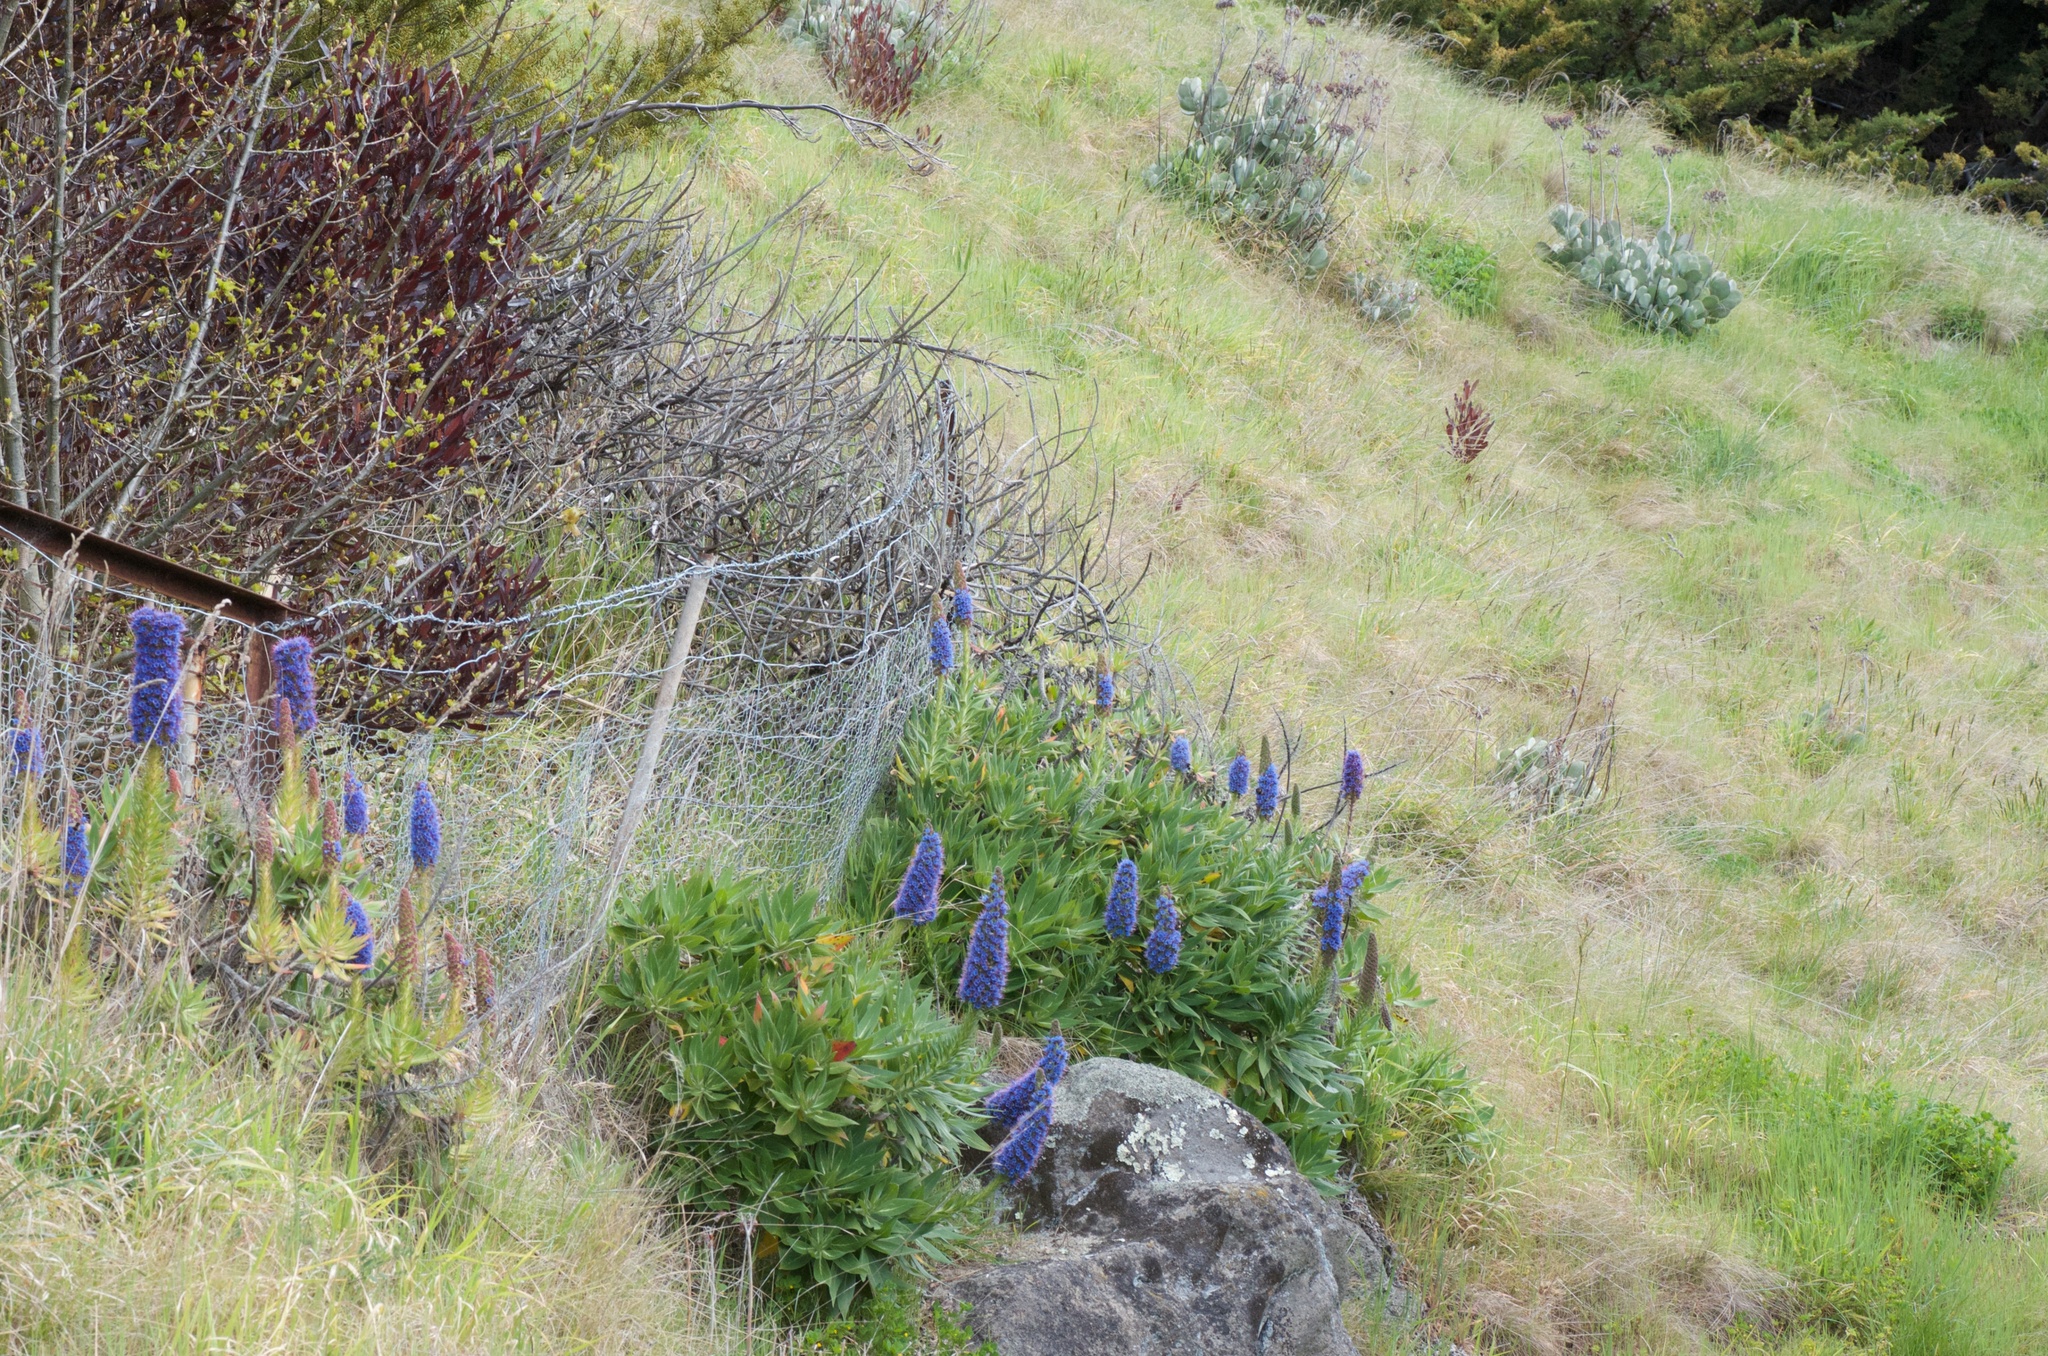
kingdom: Plantae
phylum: Tracheophyta
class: Magnoliopsida
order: Boraginales
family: Boraginaceae
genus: Echium
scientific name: Echium candicans
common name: Pride of madeira
